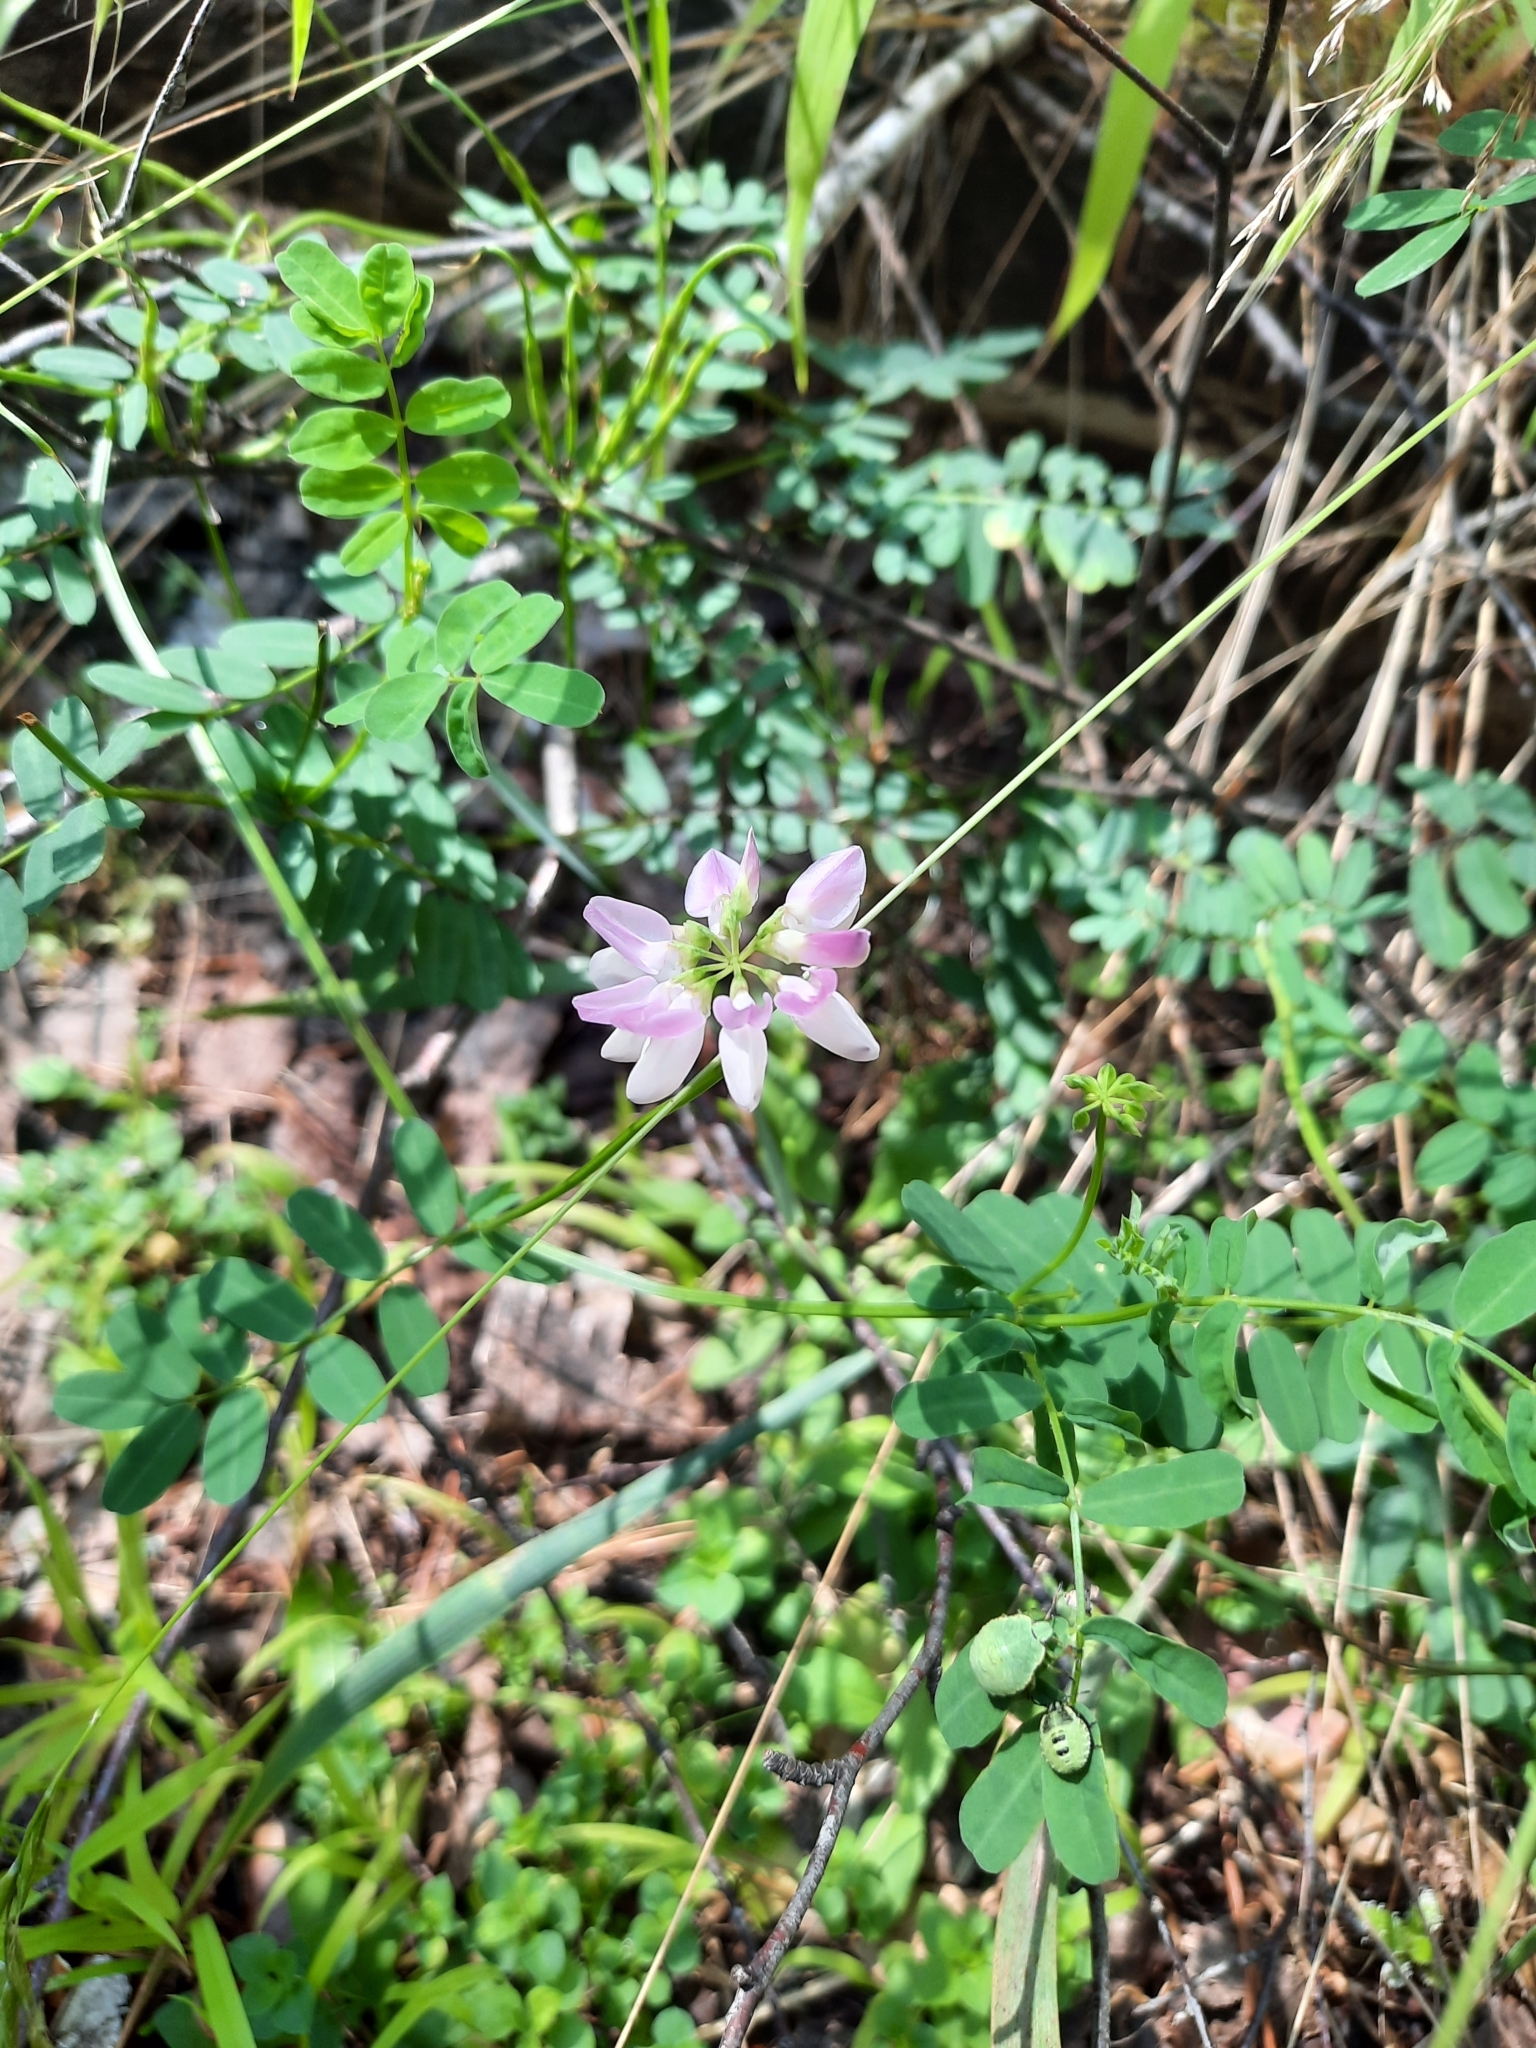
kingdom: Plantae
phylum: Tracheophyta
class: Magnoliopsida
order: Fabales
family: Fabaceae
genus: Coronilla
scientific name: Coronilla varia
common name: Crownvetch
